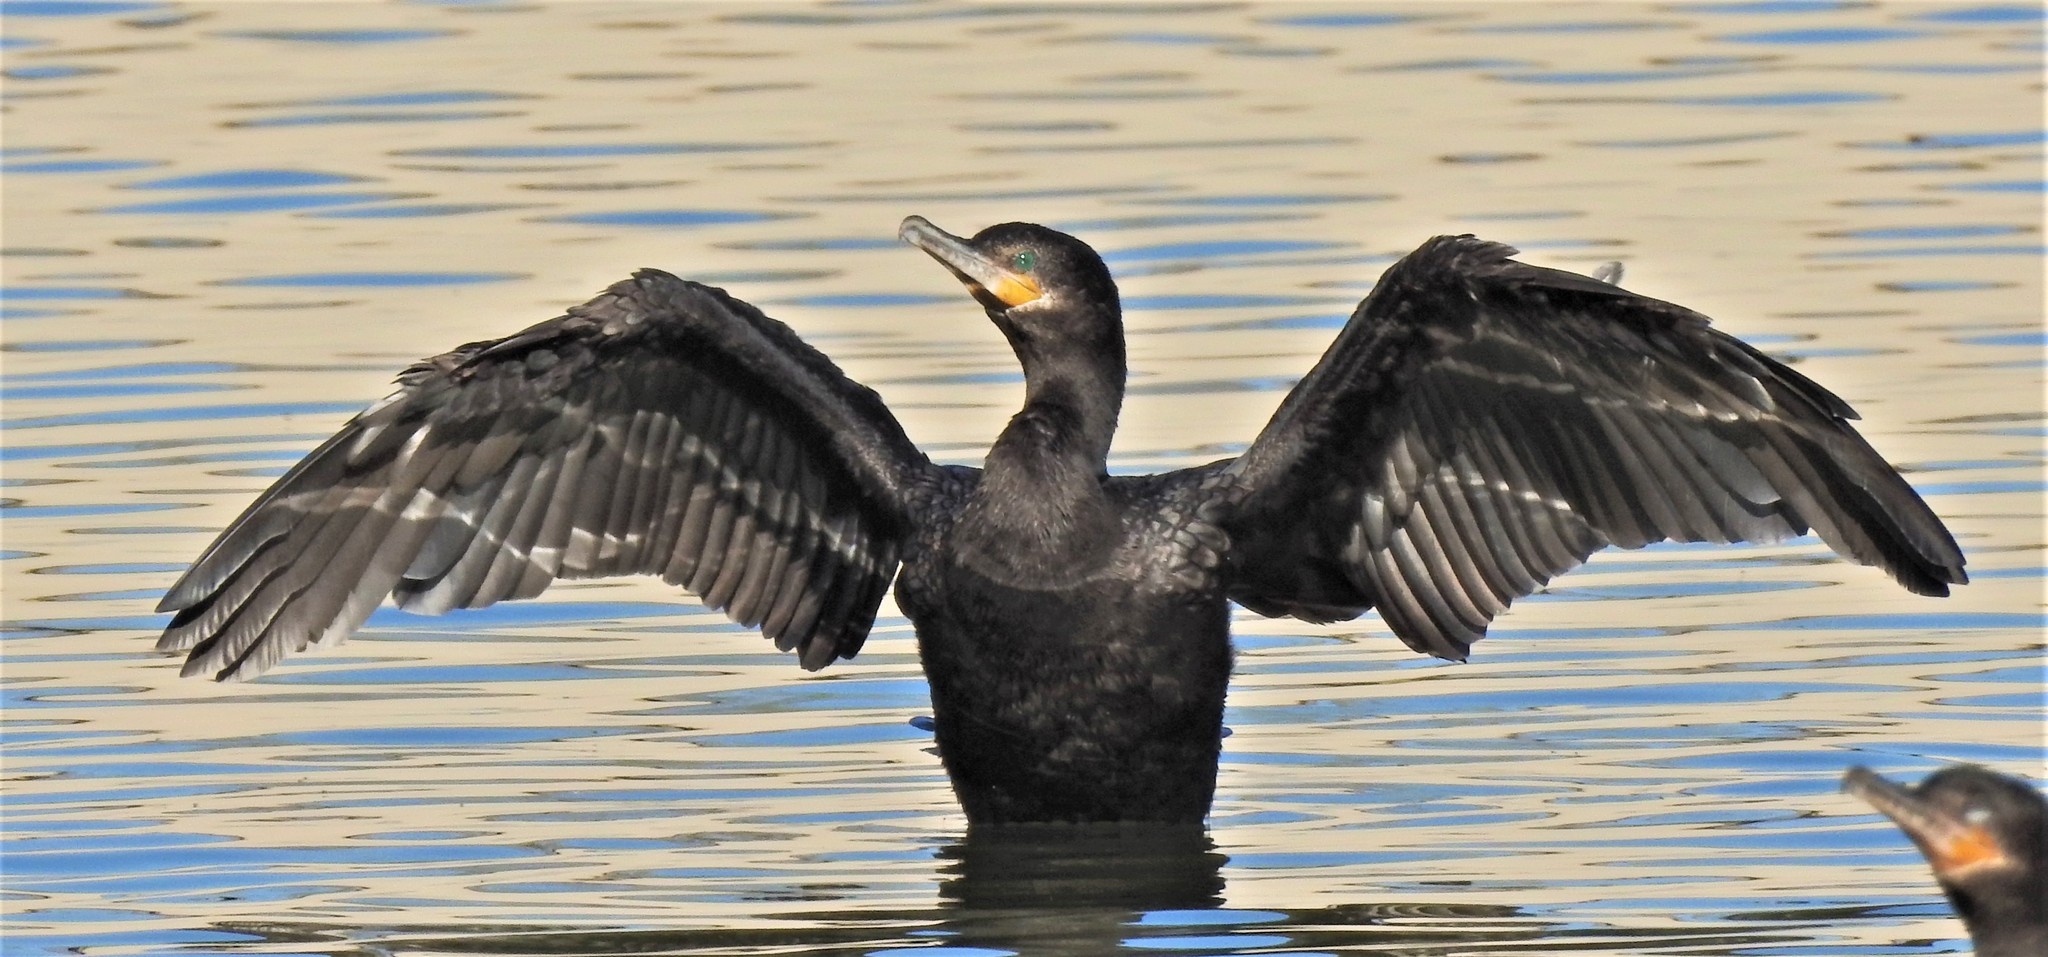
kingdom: Animalia
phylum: Chordata
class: Aves
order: Suliformes
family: Phalacrocoracidae
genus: Phalacrocorax
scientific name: Phalacrocorax brasilianus
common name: Neotropic cormorant
